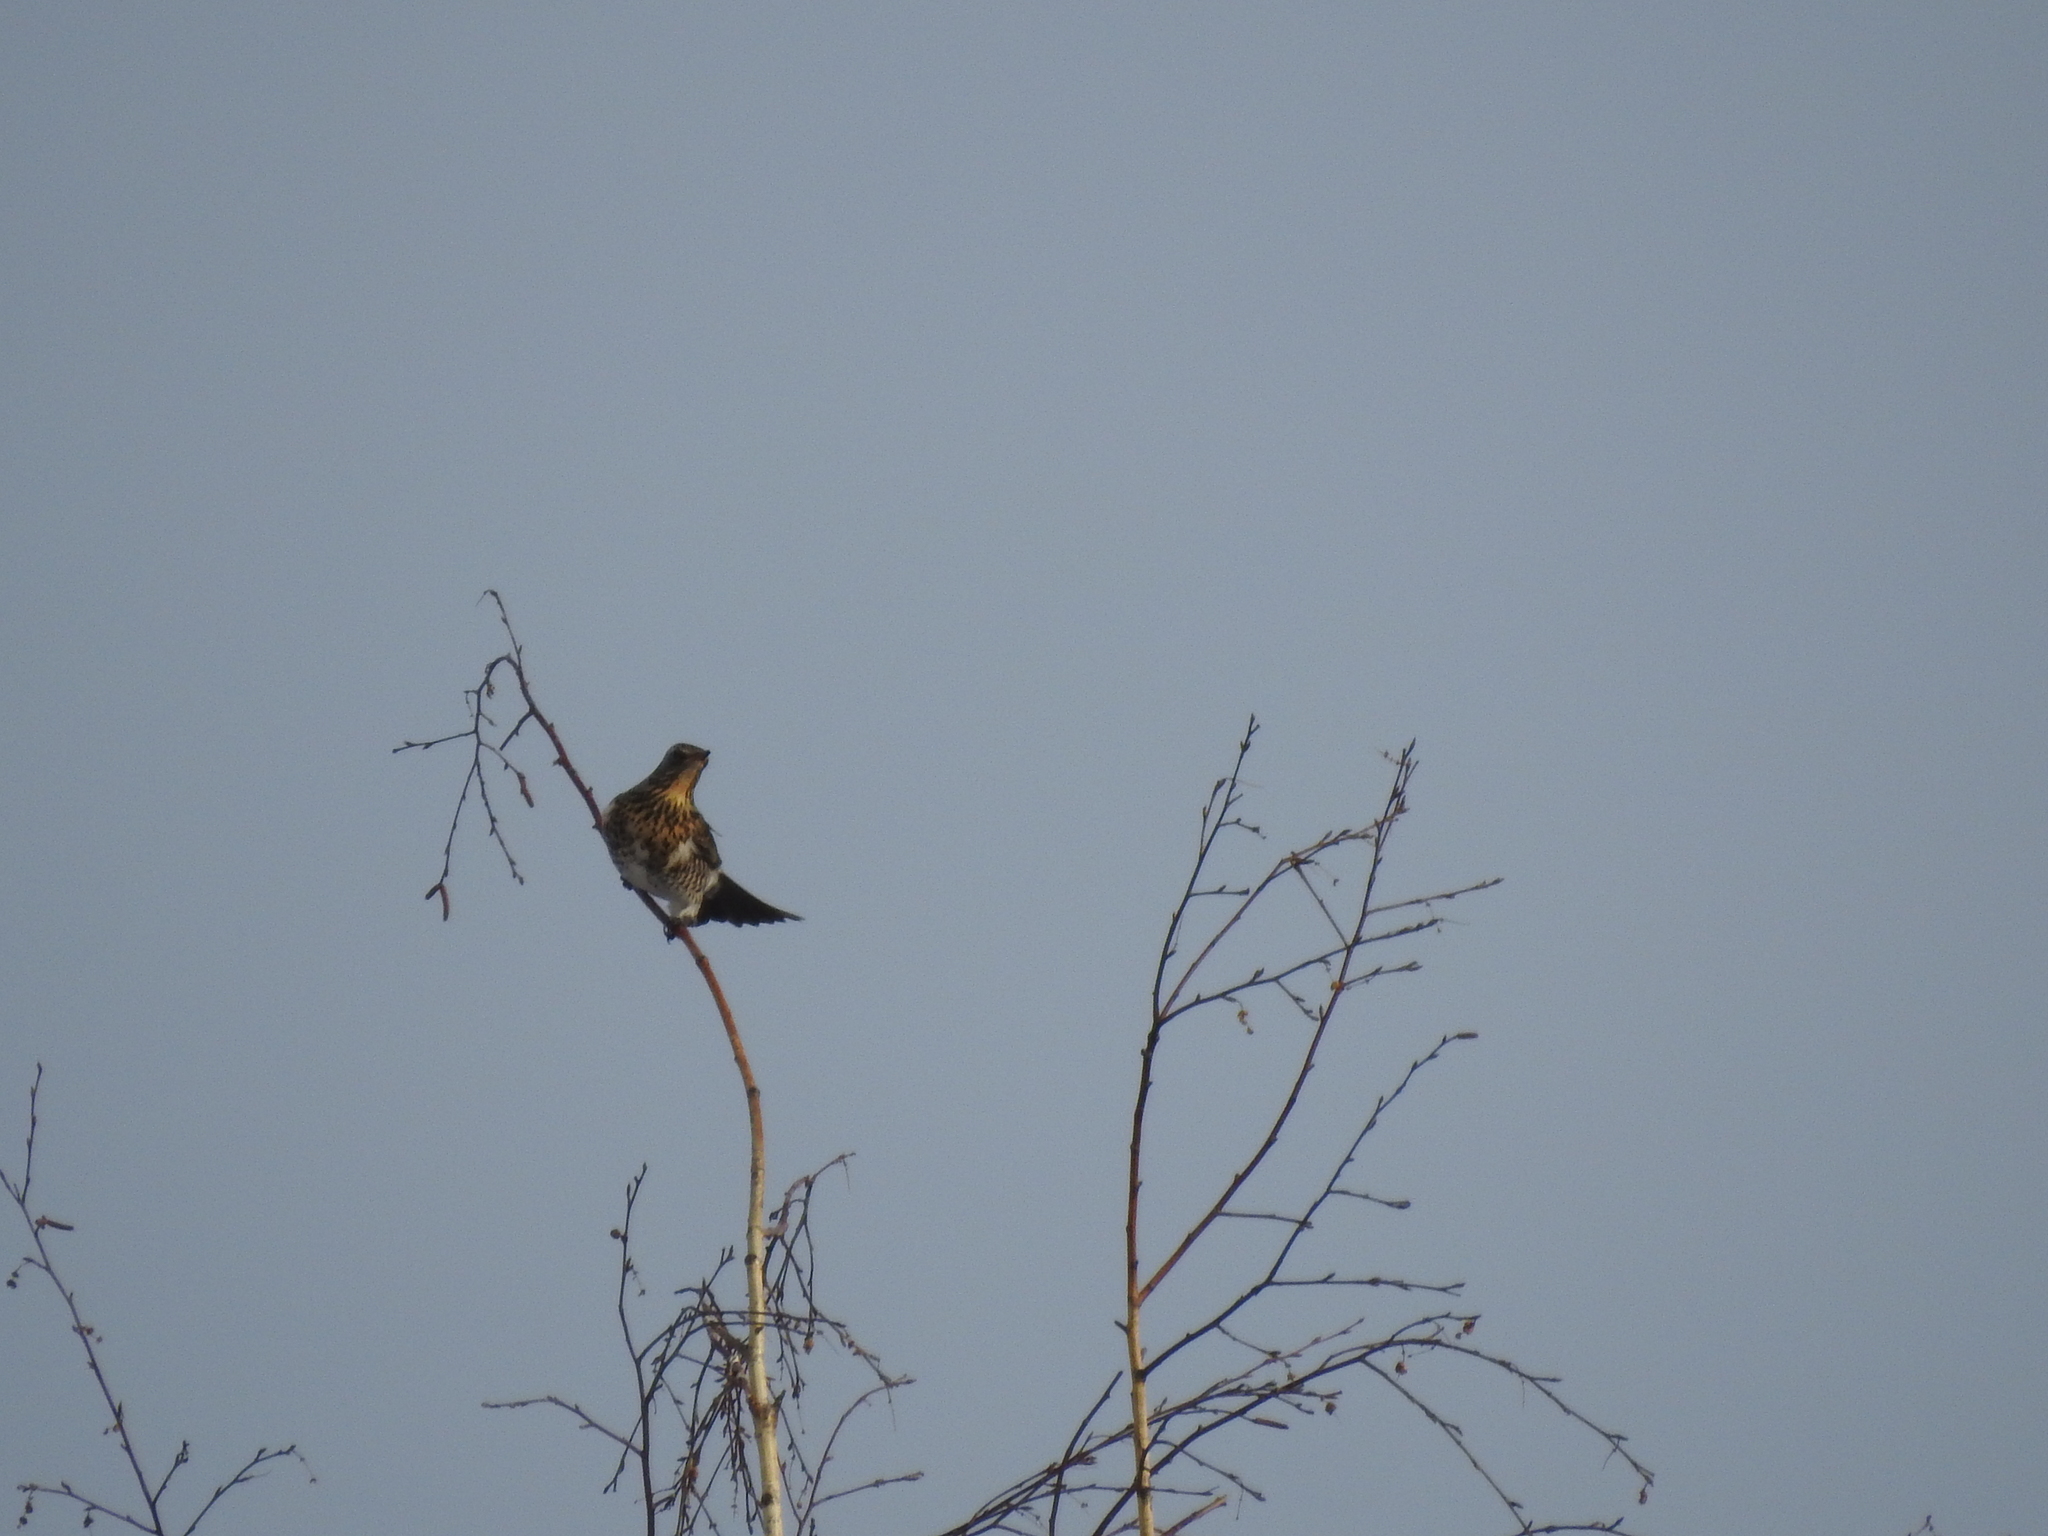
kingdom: Animalia
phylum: Chordata
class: Aves
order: Passeriformes
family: Turdidae
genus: Turdus
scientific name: Turdus pilaris
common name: Fieldfare
